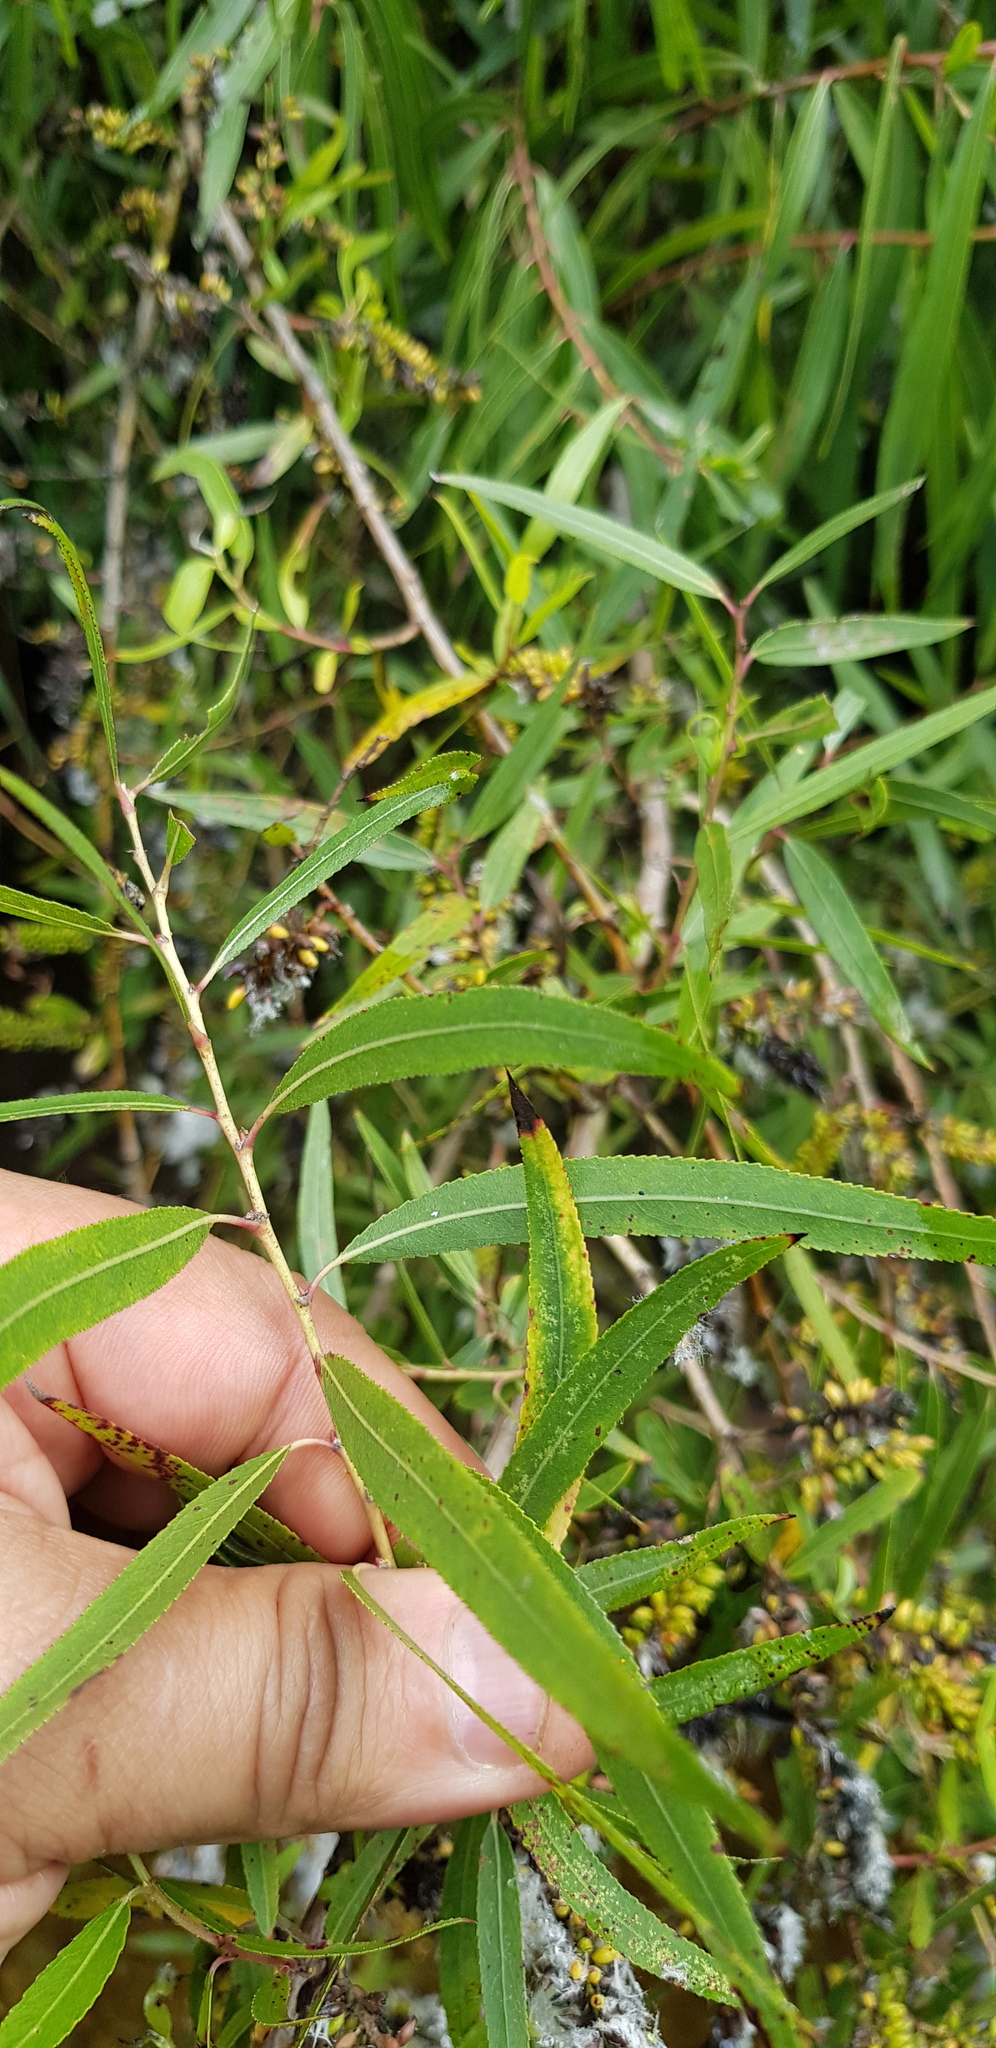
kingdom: Plantae
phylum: Tracheophyta
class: Magnoliopsida
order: Malpighiales
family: Salicaceae
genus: Salix
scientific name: Salix humboldtiana
